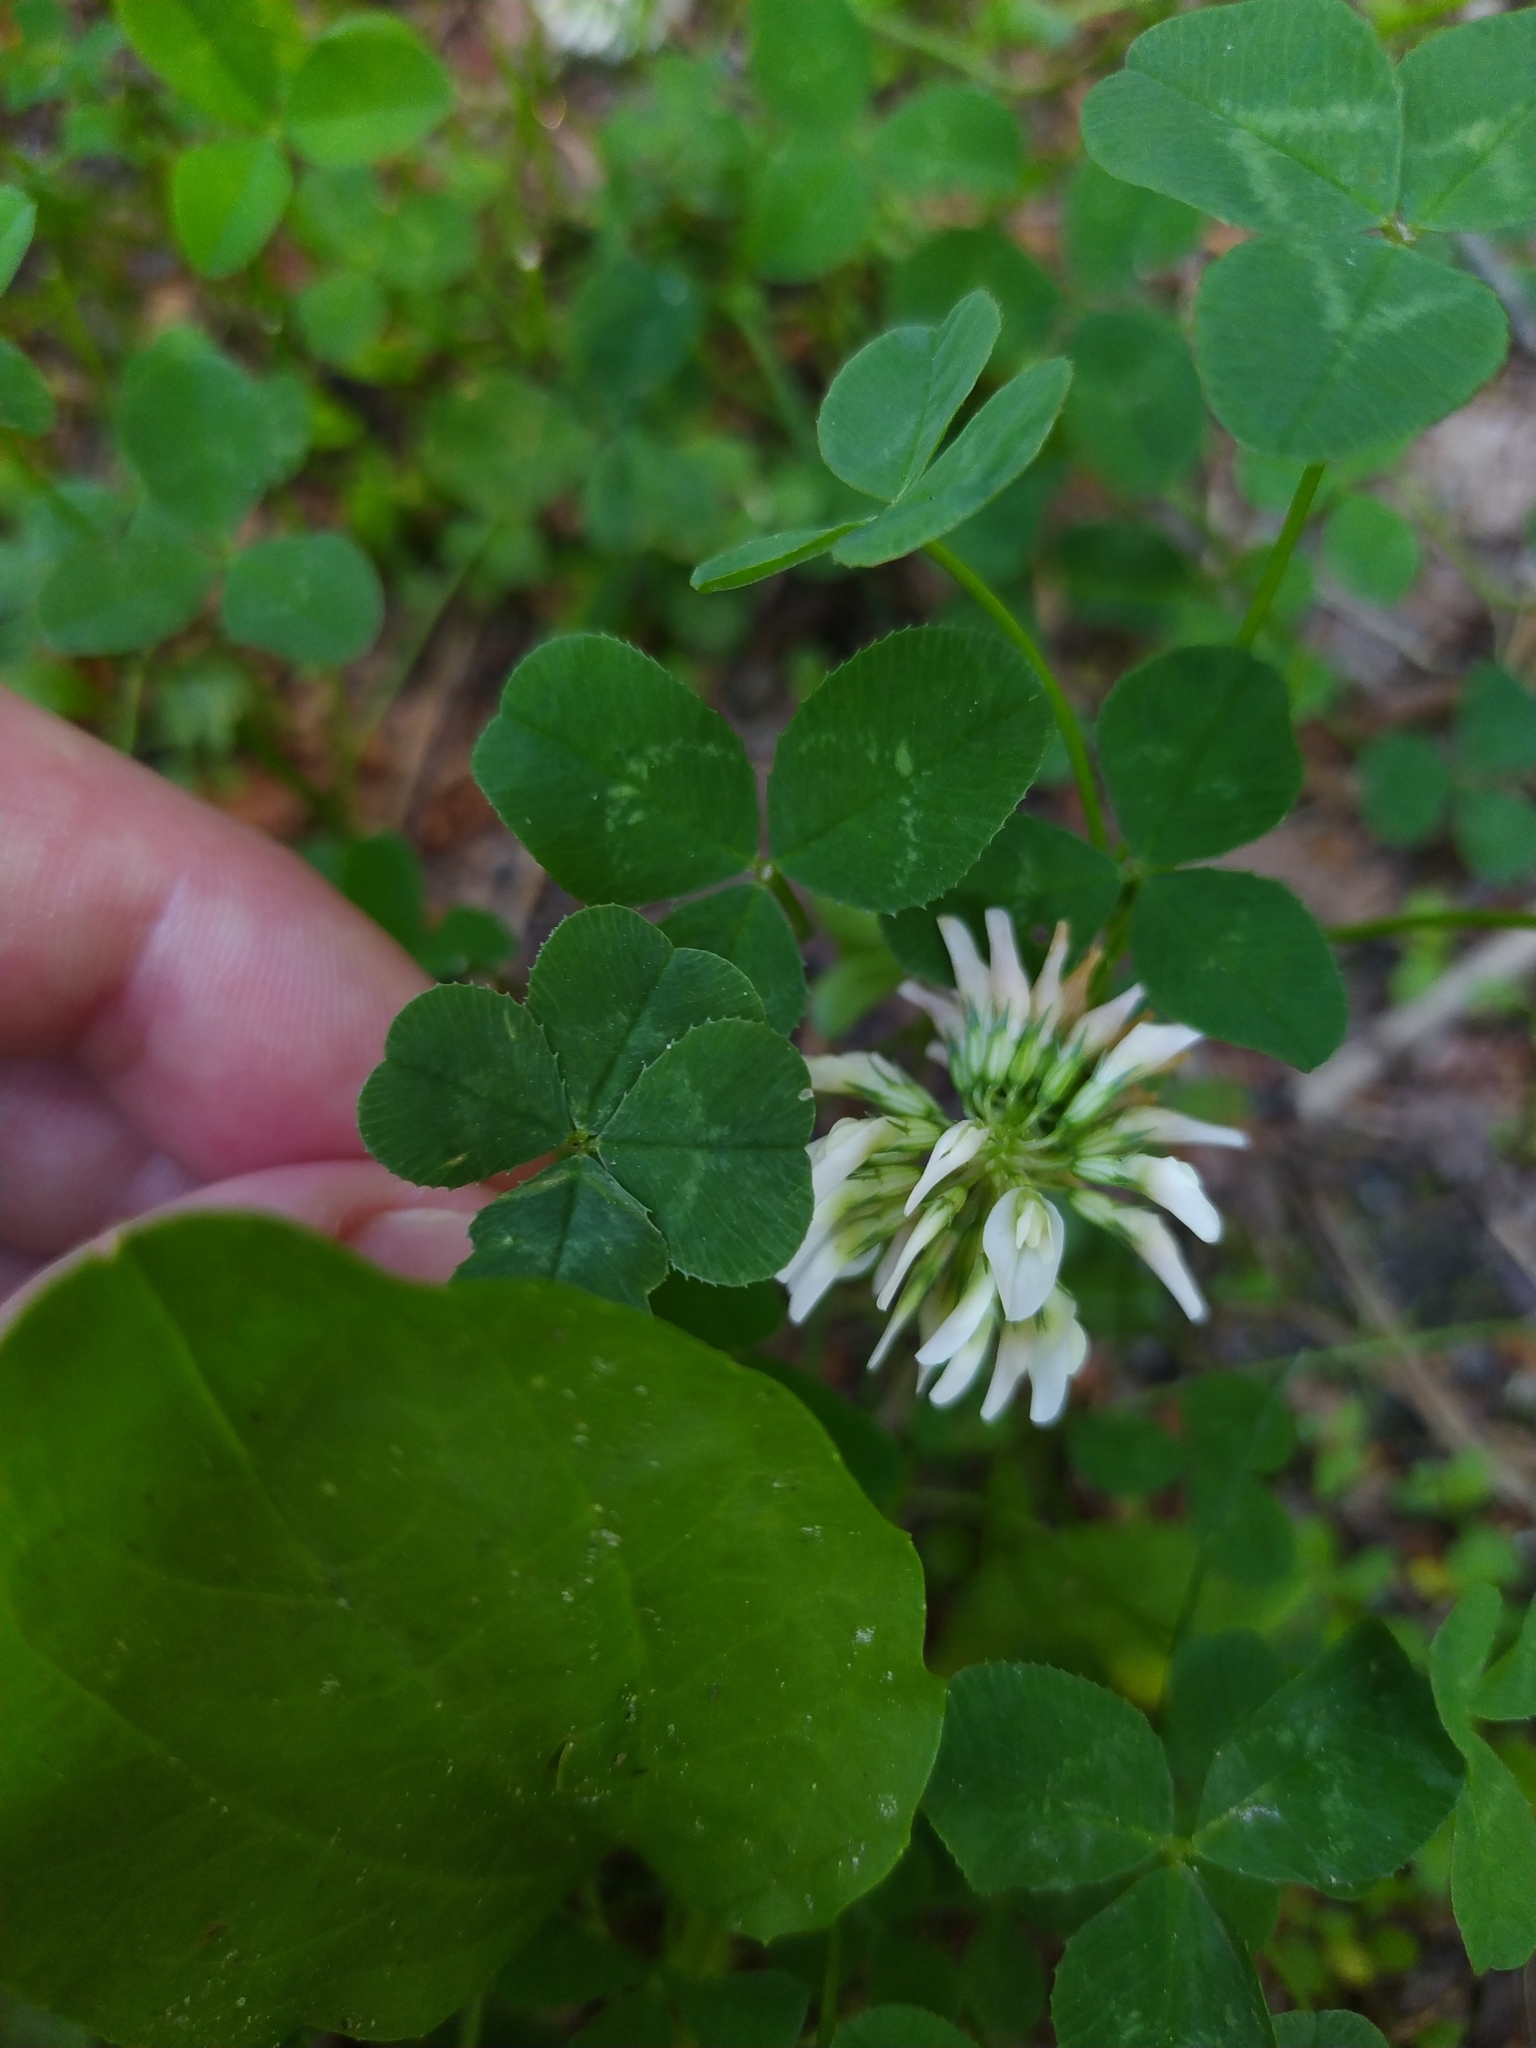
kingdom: Plantae
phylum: Tracheophyta
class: Magnoliopsida
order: Fabales
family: Fabaceae
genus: Trifolium
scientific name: Trifolium repens
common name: White clover
